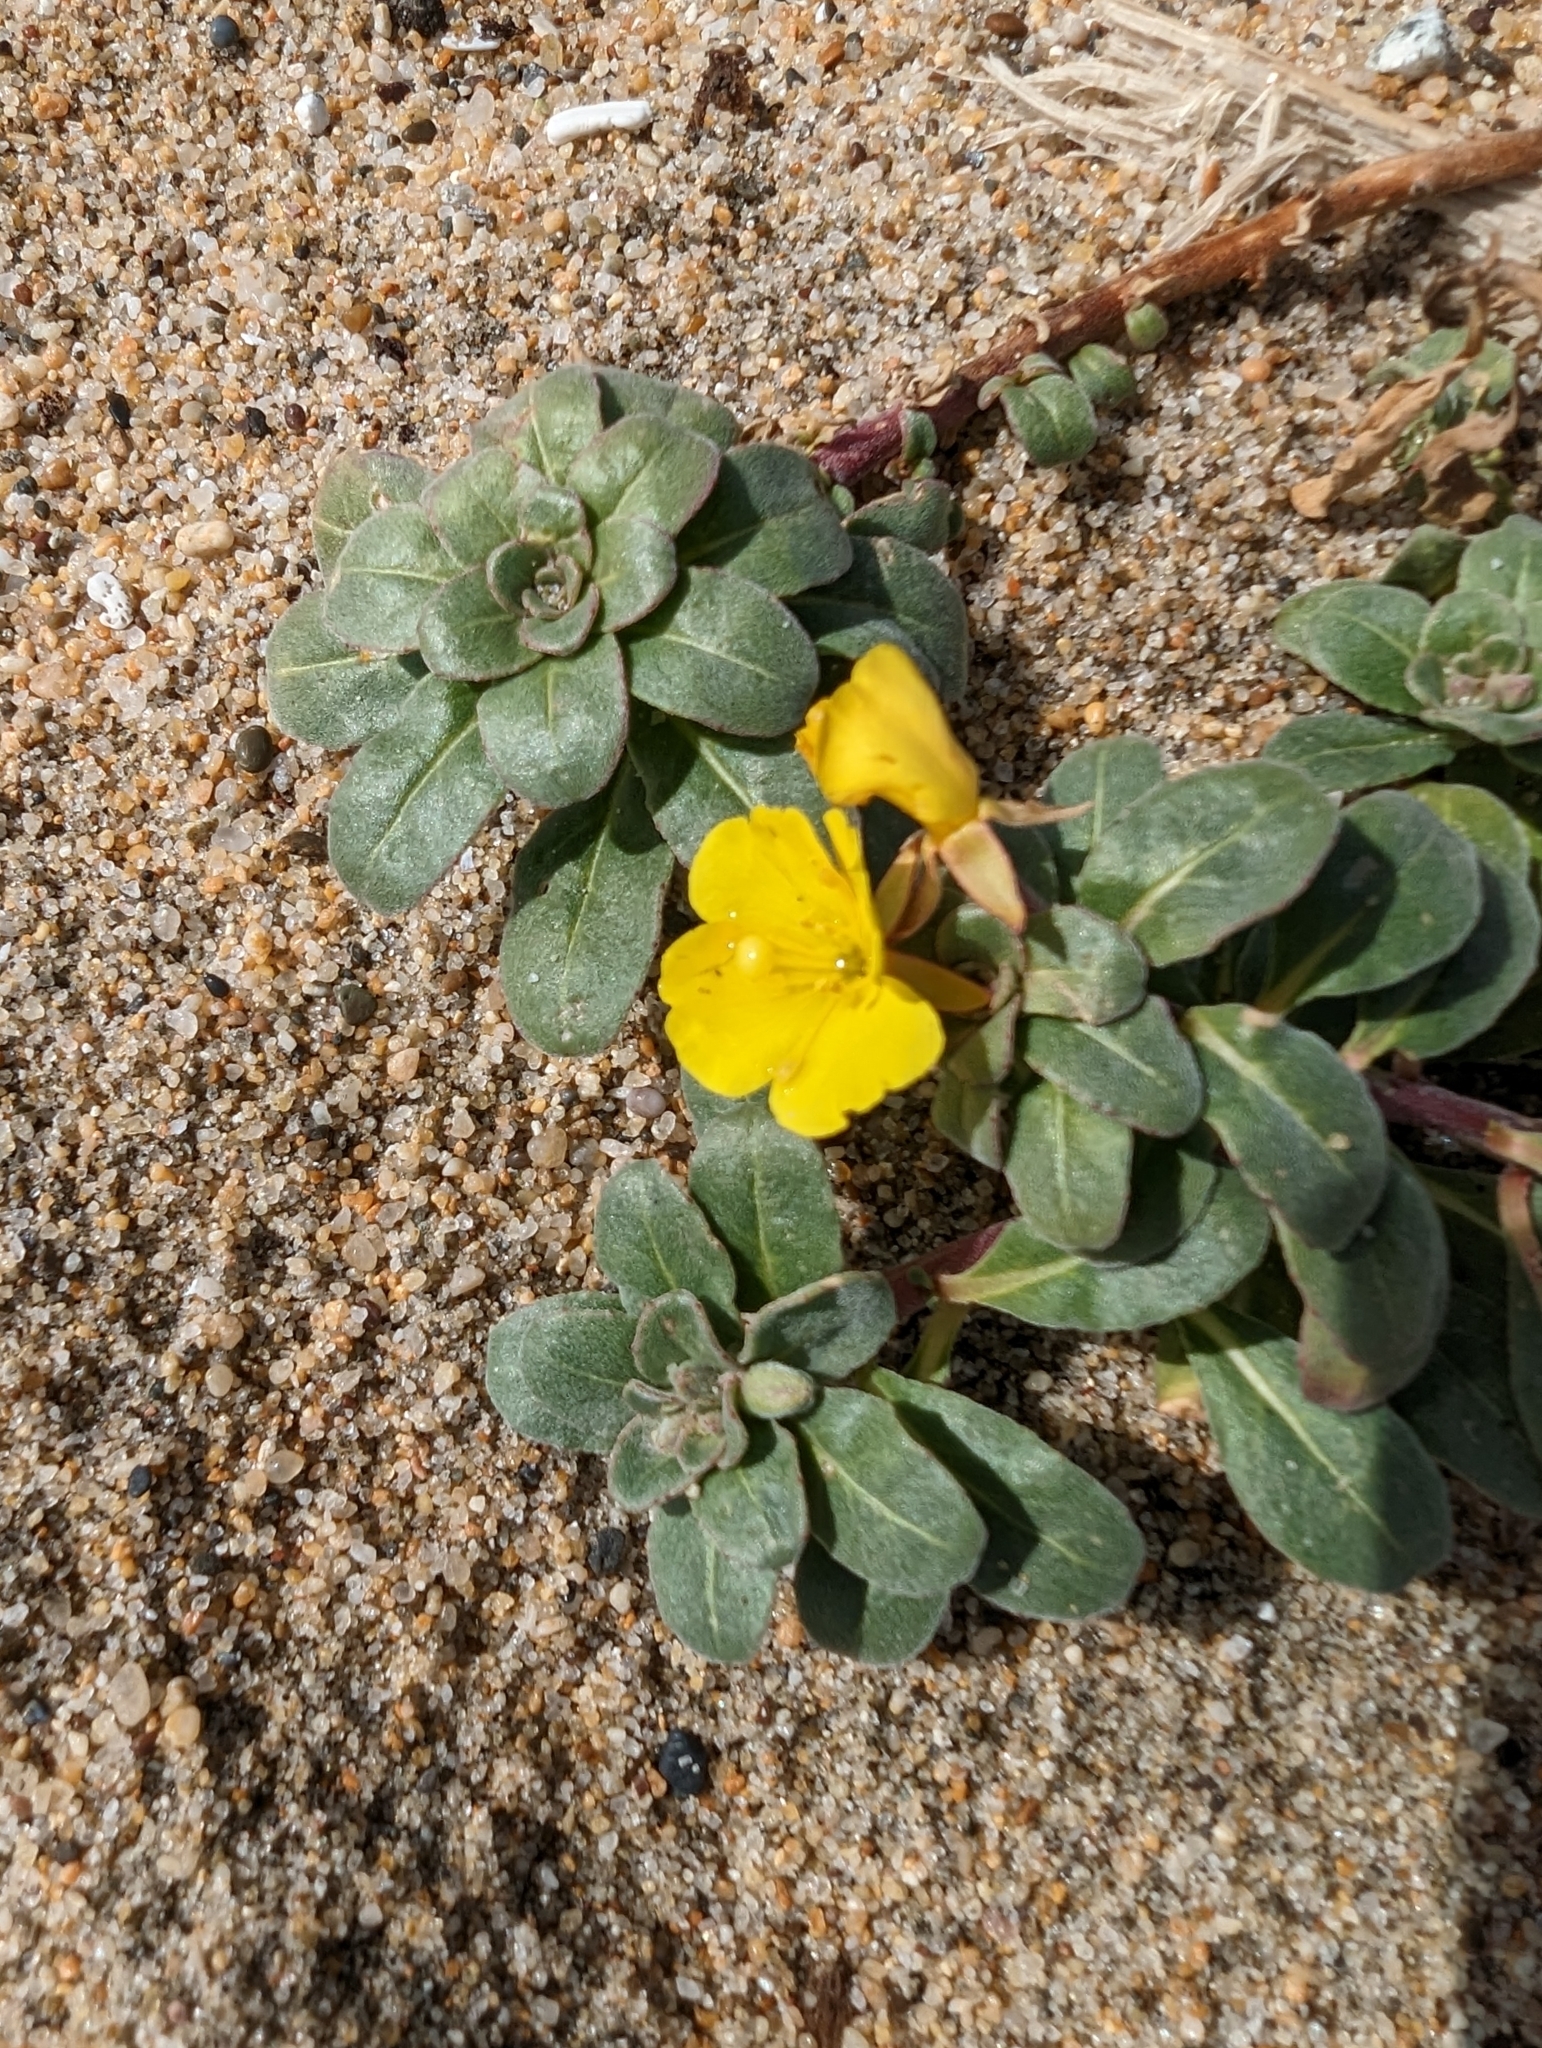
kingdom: Plantae
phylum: Tracheophyta
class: Magnoliopsida
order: Myrtales
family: Onagraceae
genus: Camissoniopsis
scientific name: Camissoniopsis cheiranthifolia
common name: Beach suncup
